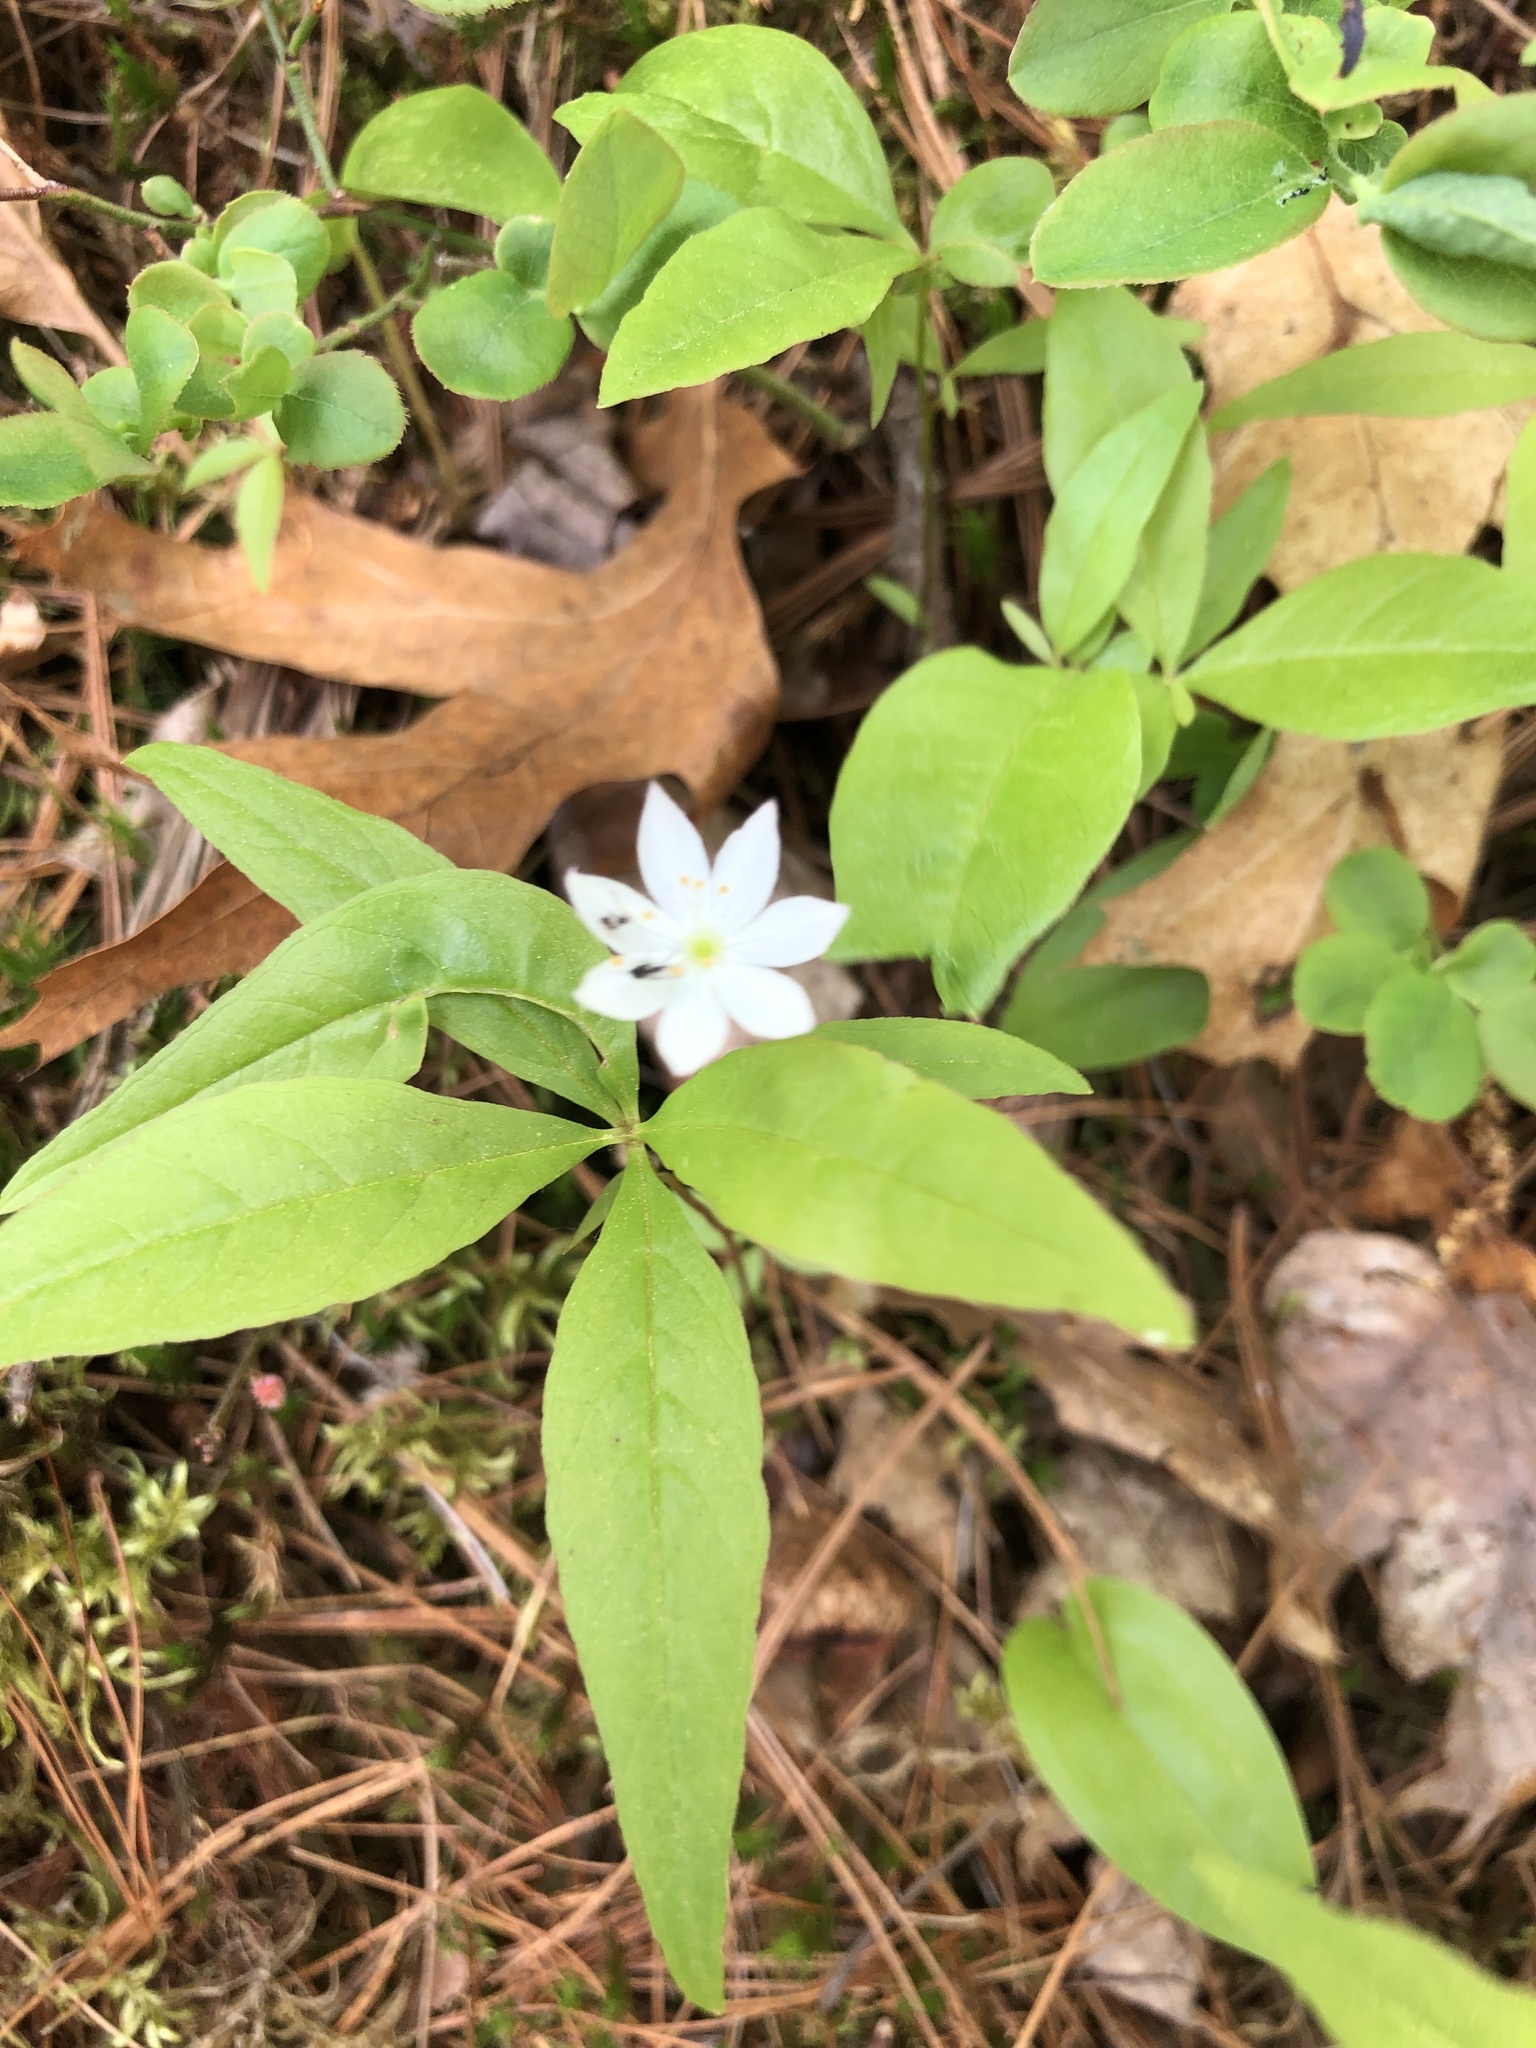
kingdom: Plantae
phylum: Tracheophyta
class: Magnoliopsida
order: Ericales
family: Primulaceae
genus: Lysimachia
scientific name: Lysimachia borealis
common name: American starflower
